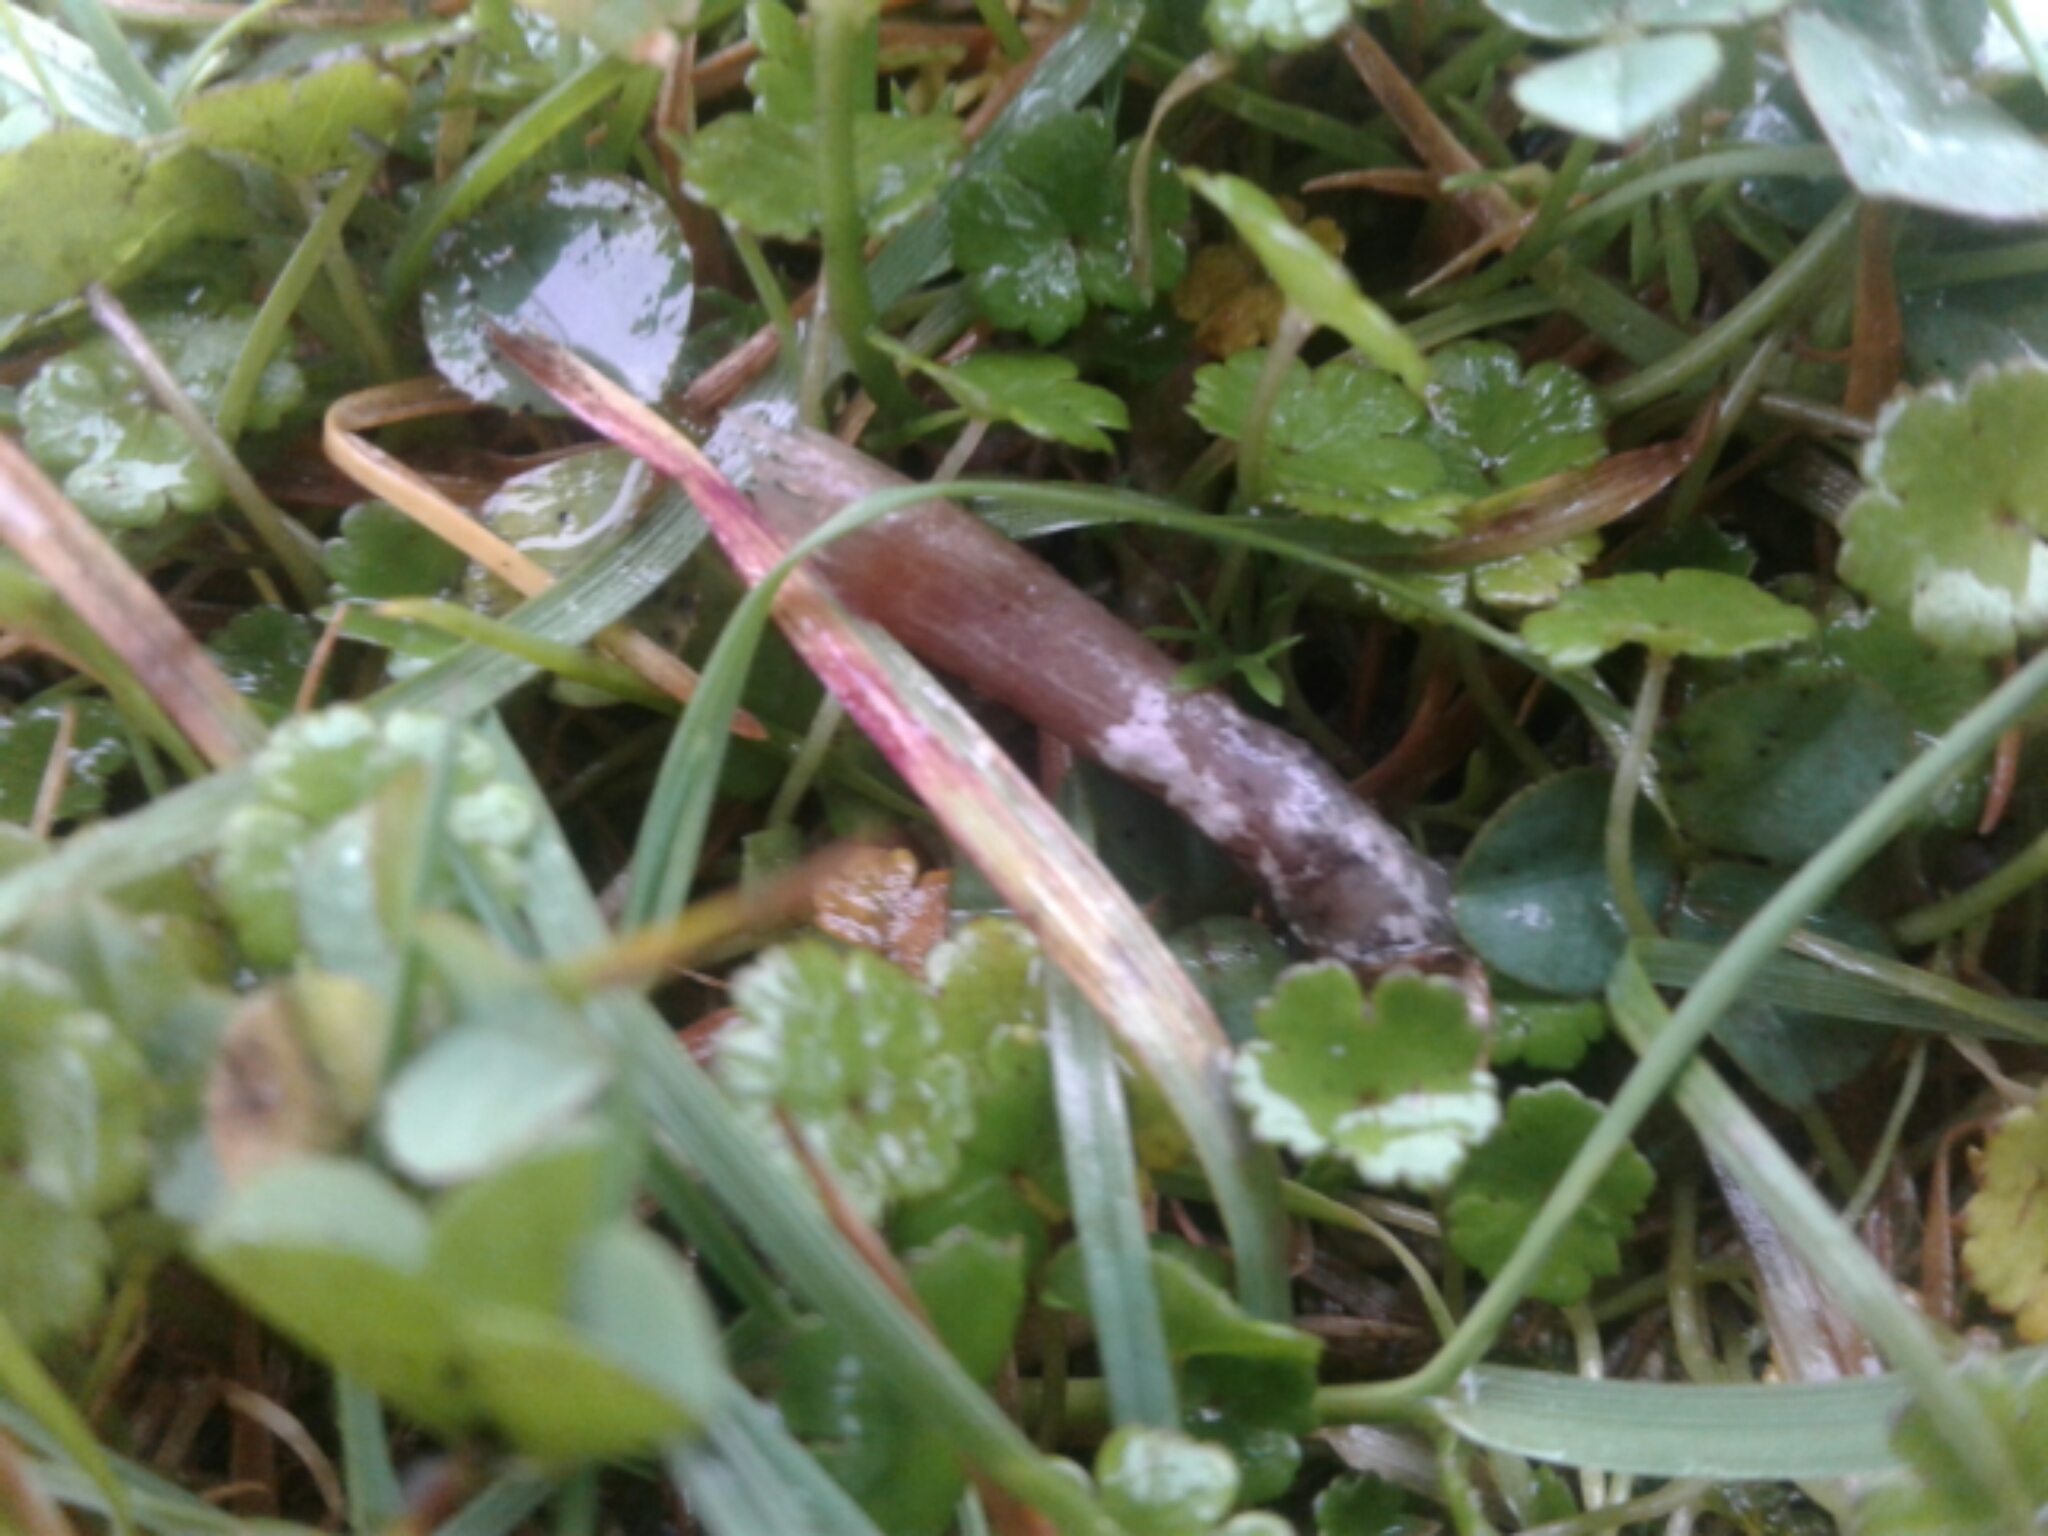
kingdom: Fungi
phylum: Basidiomycota
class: Agaricomycetes
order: Agaricales
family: Bolbitiaceae
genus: Panaeolina
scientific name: Panaeolina foenisecii
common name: Brown hay cap
